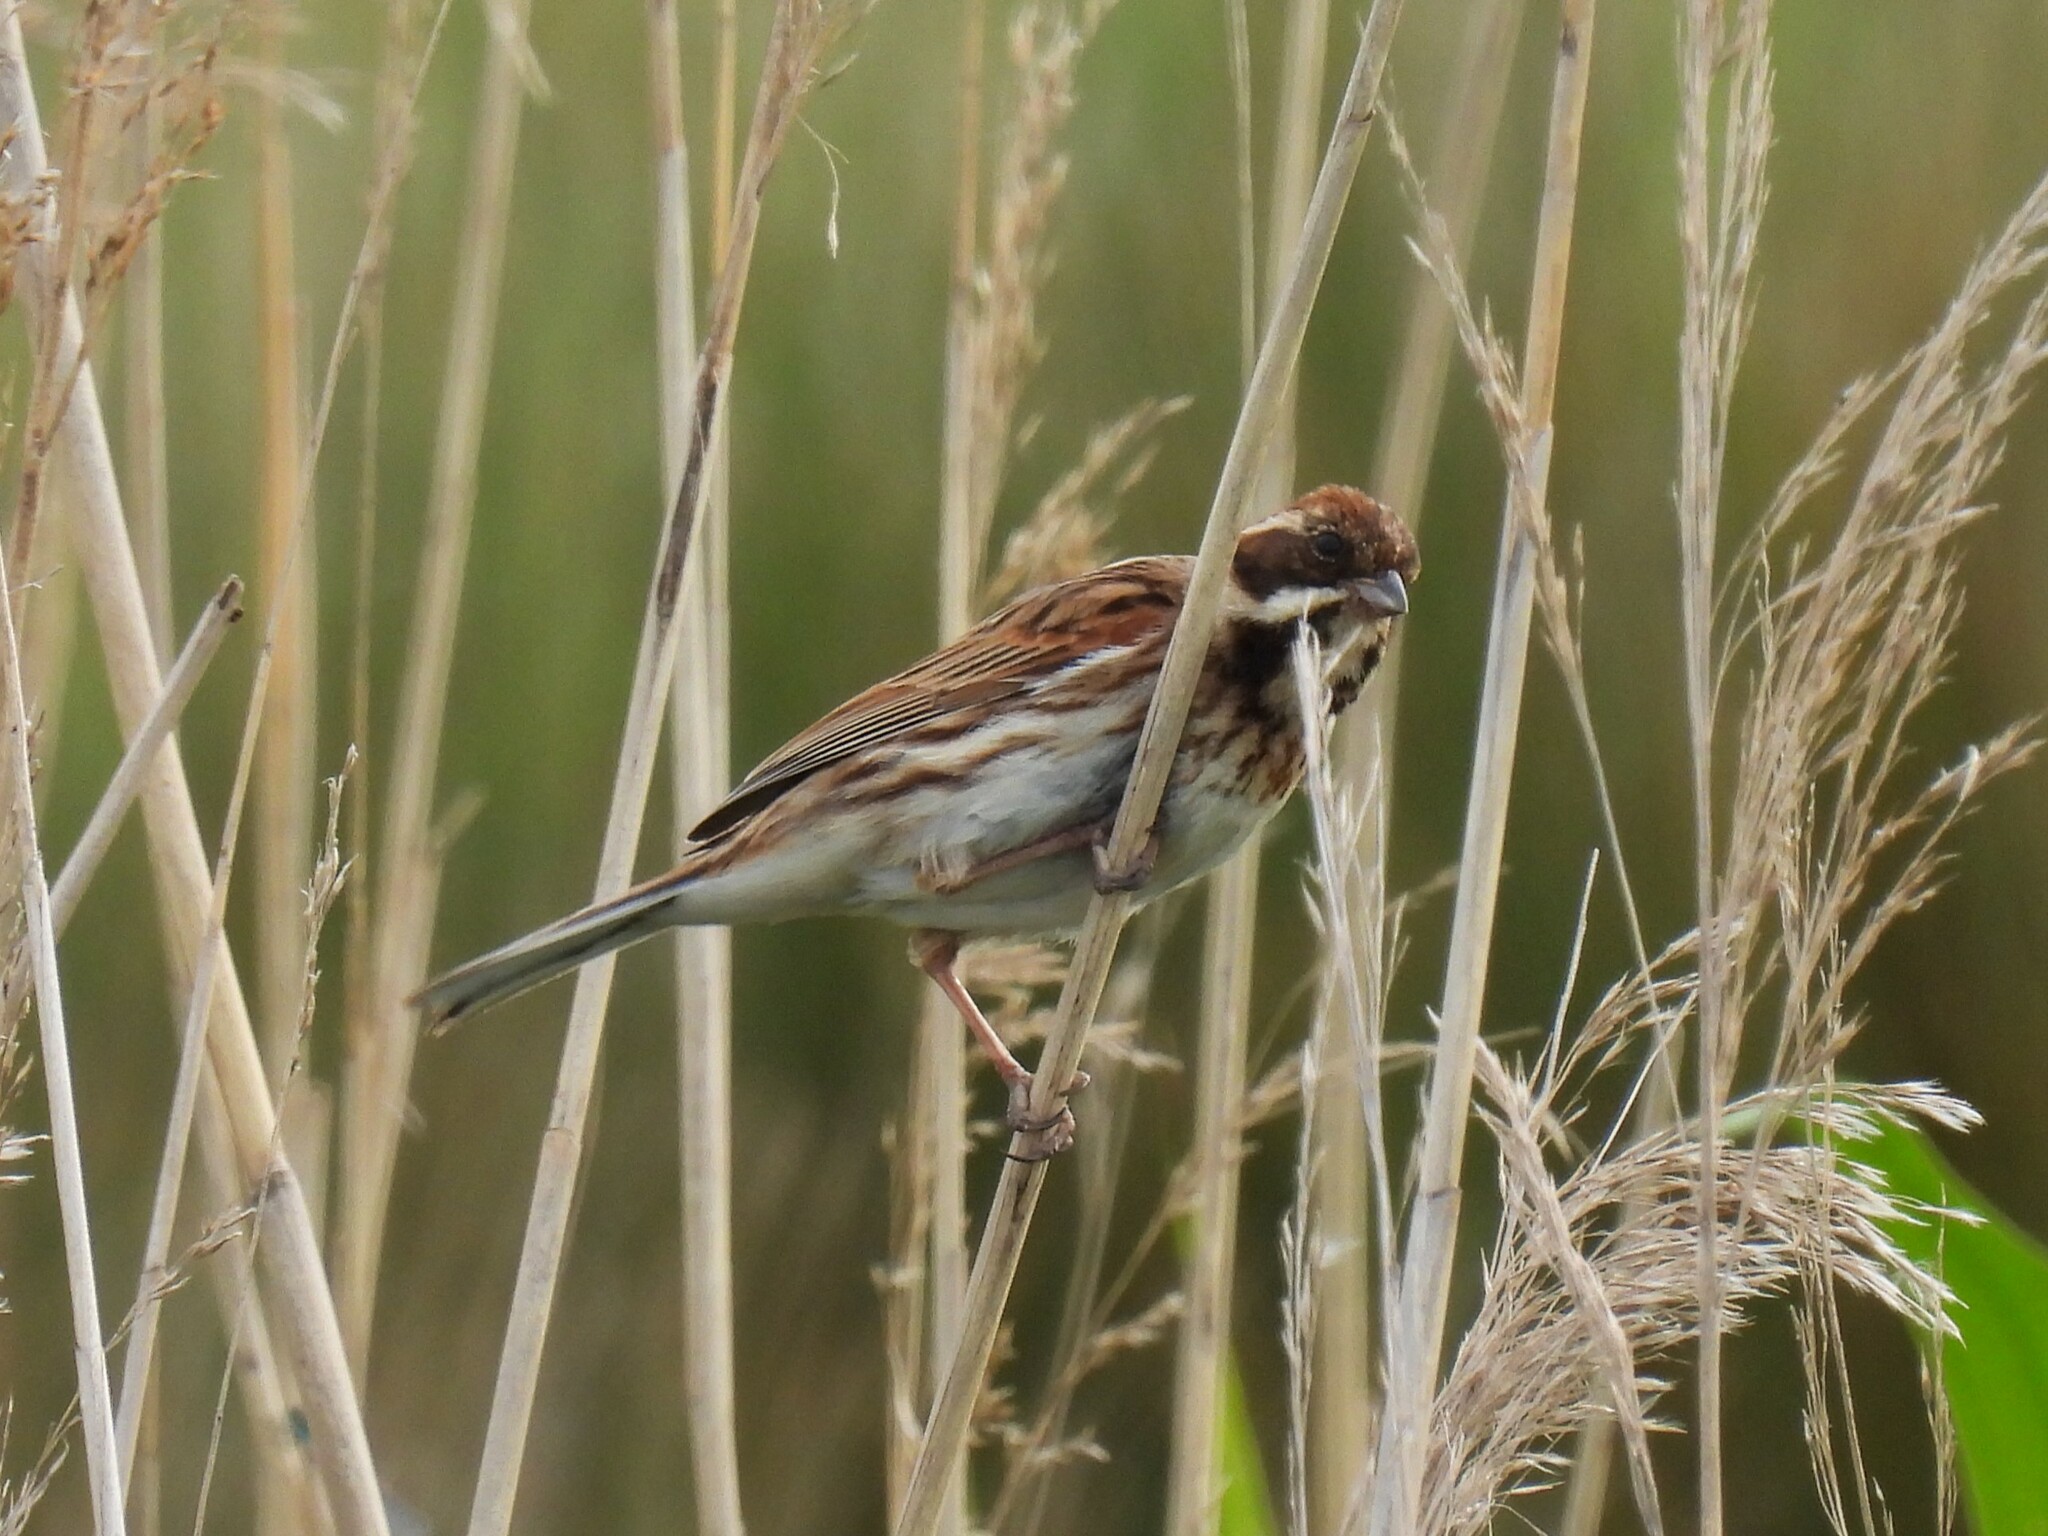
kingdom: Animalia
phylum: Chordata
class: Aves
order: Passeriformes
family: Emberizidae
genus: Emberiza
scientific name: Emberiza schoeniclus
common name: Reed bunting
